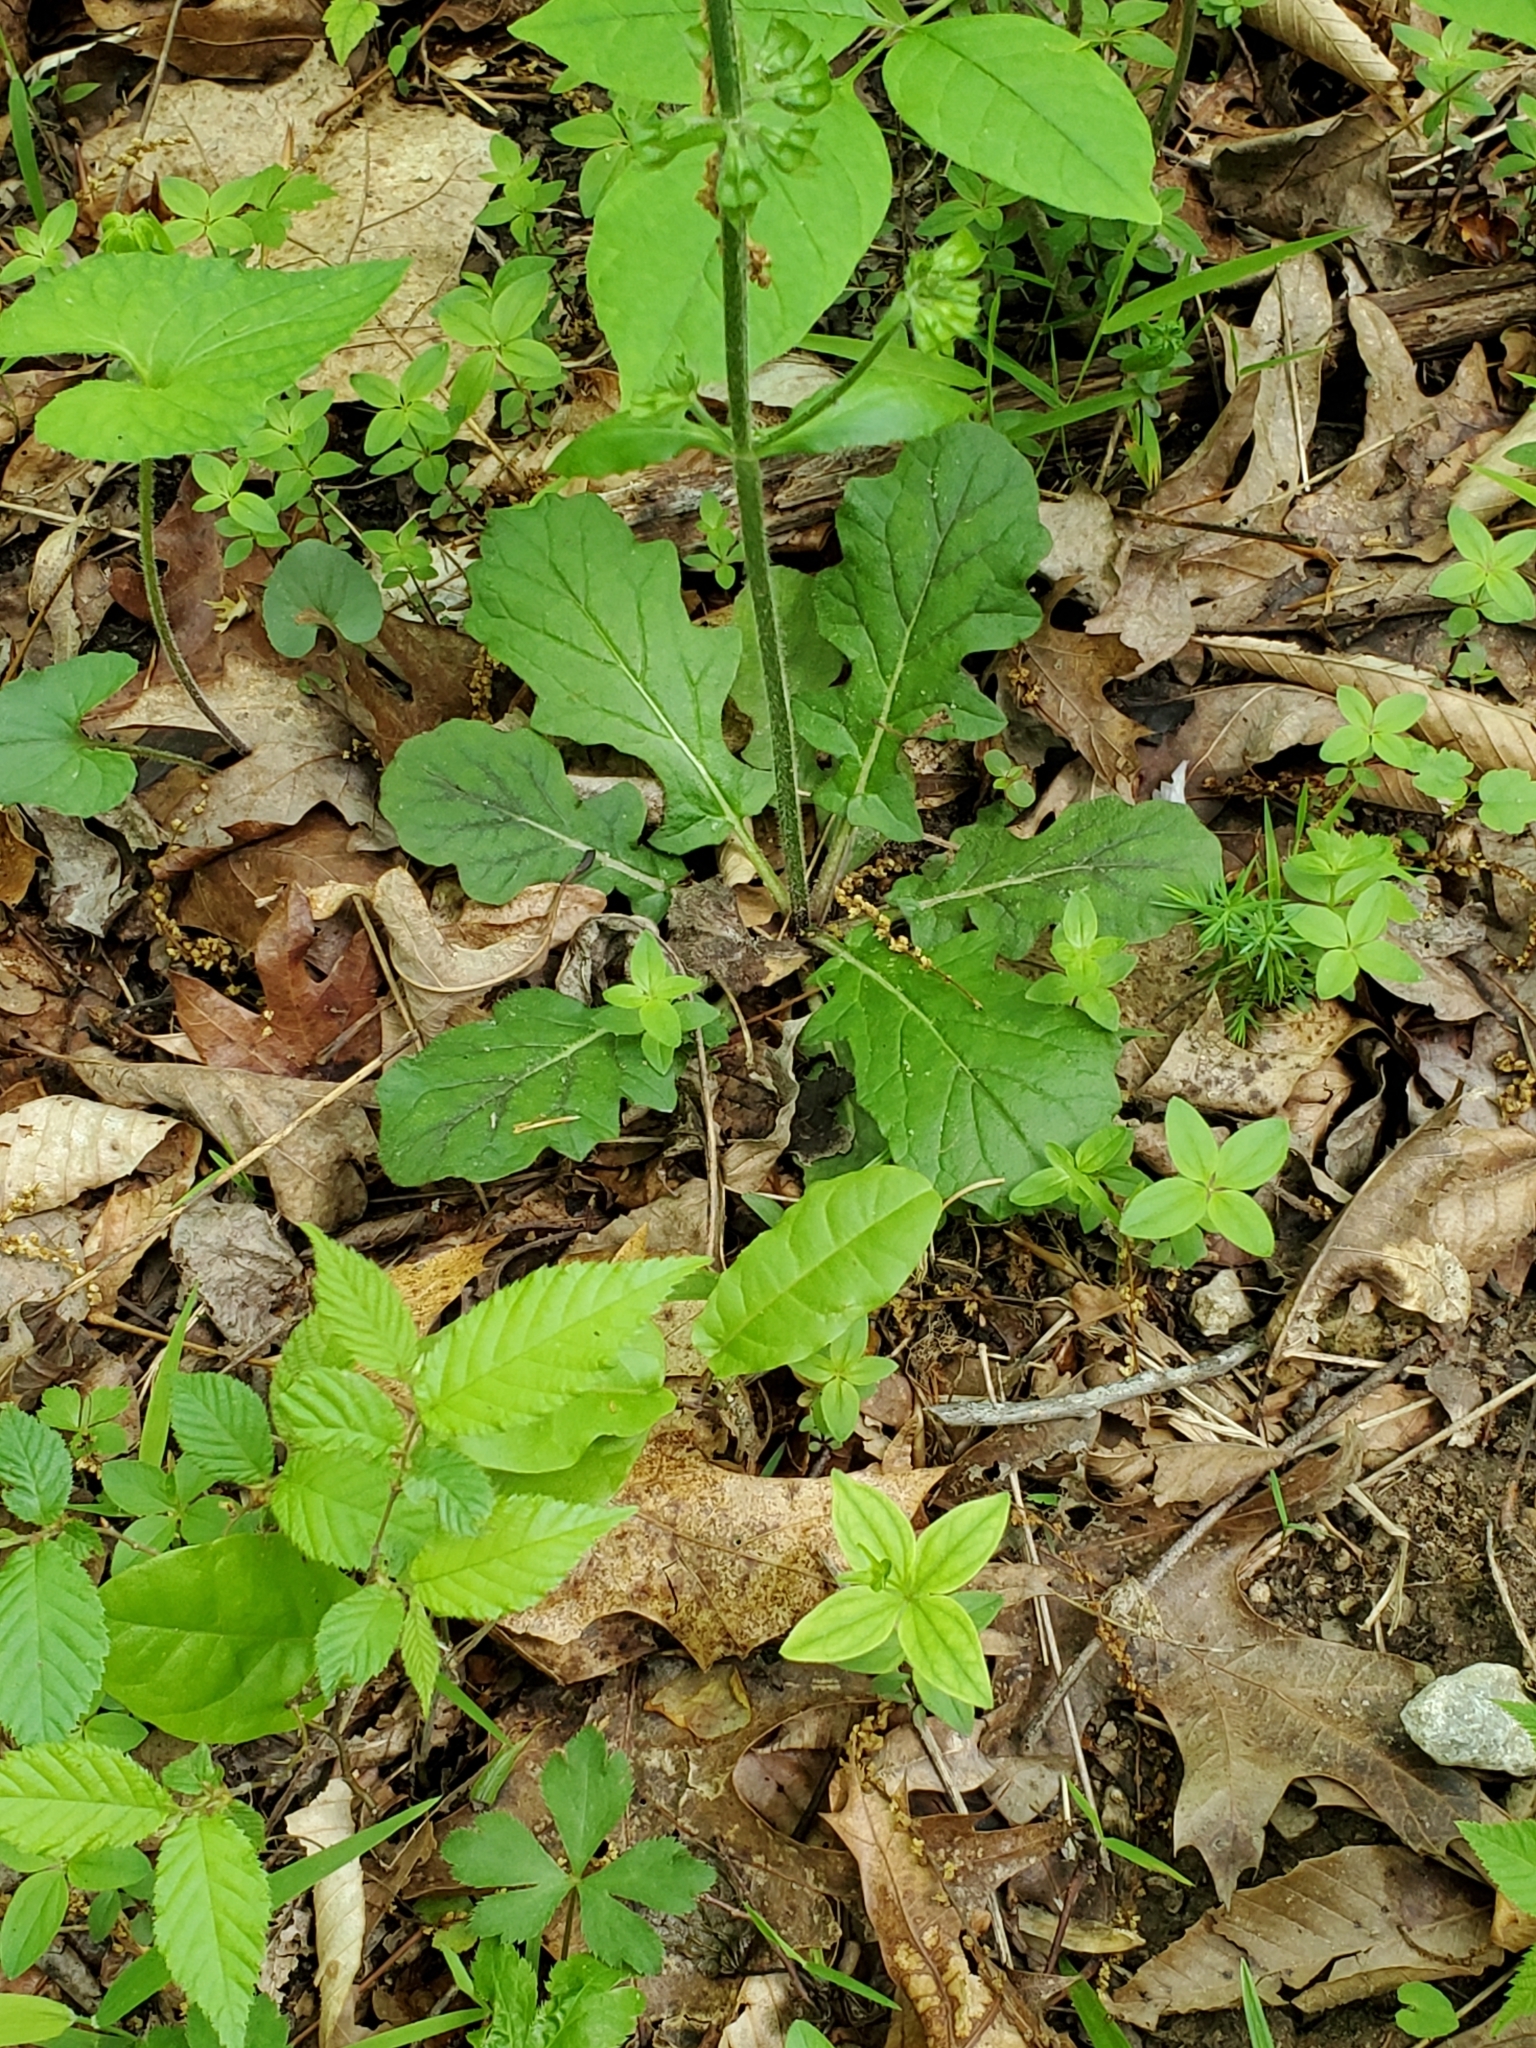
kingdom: Plantae
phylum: Tracheophyta
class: Magnoliopsida
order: Lamiales
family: Lamiaceae
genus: Salvia
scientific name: Salvia lyrata
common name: Cancerweed
